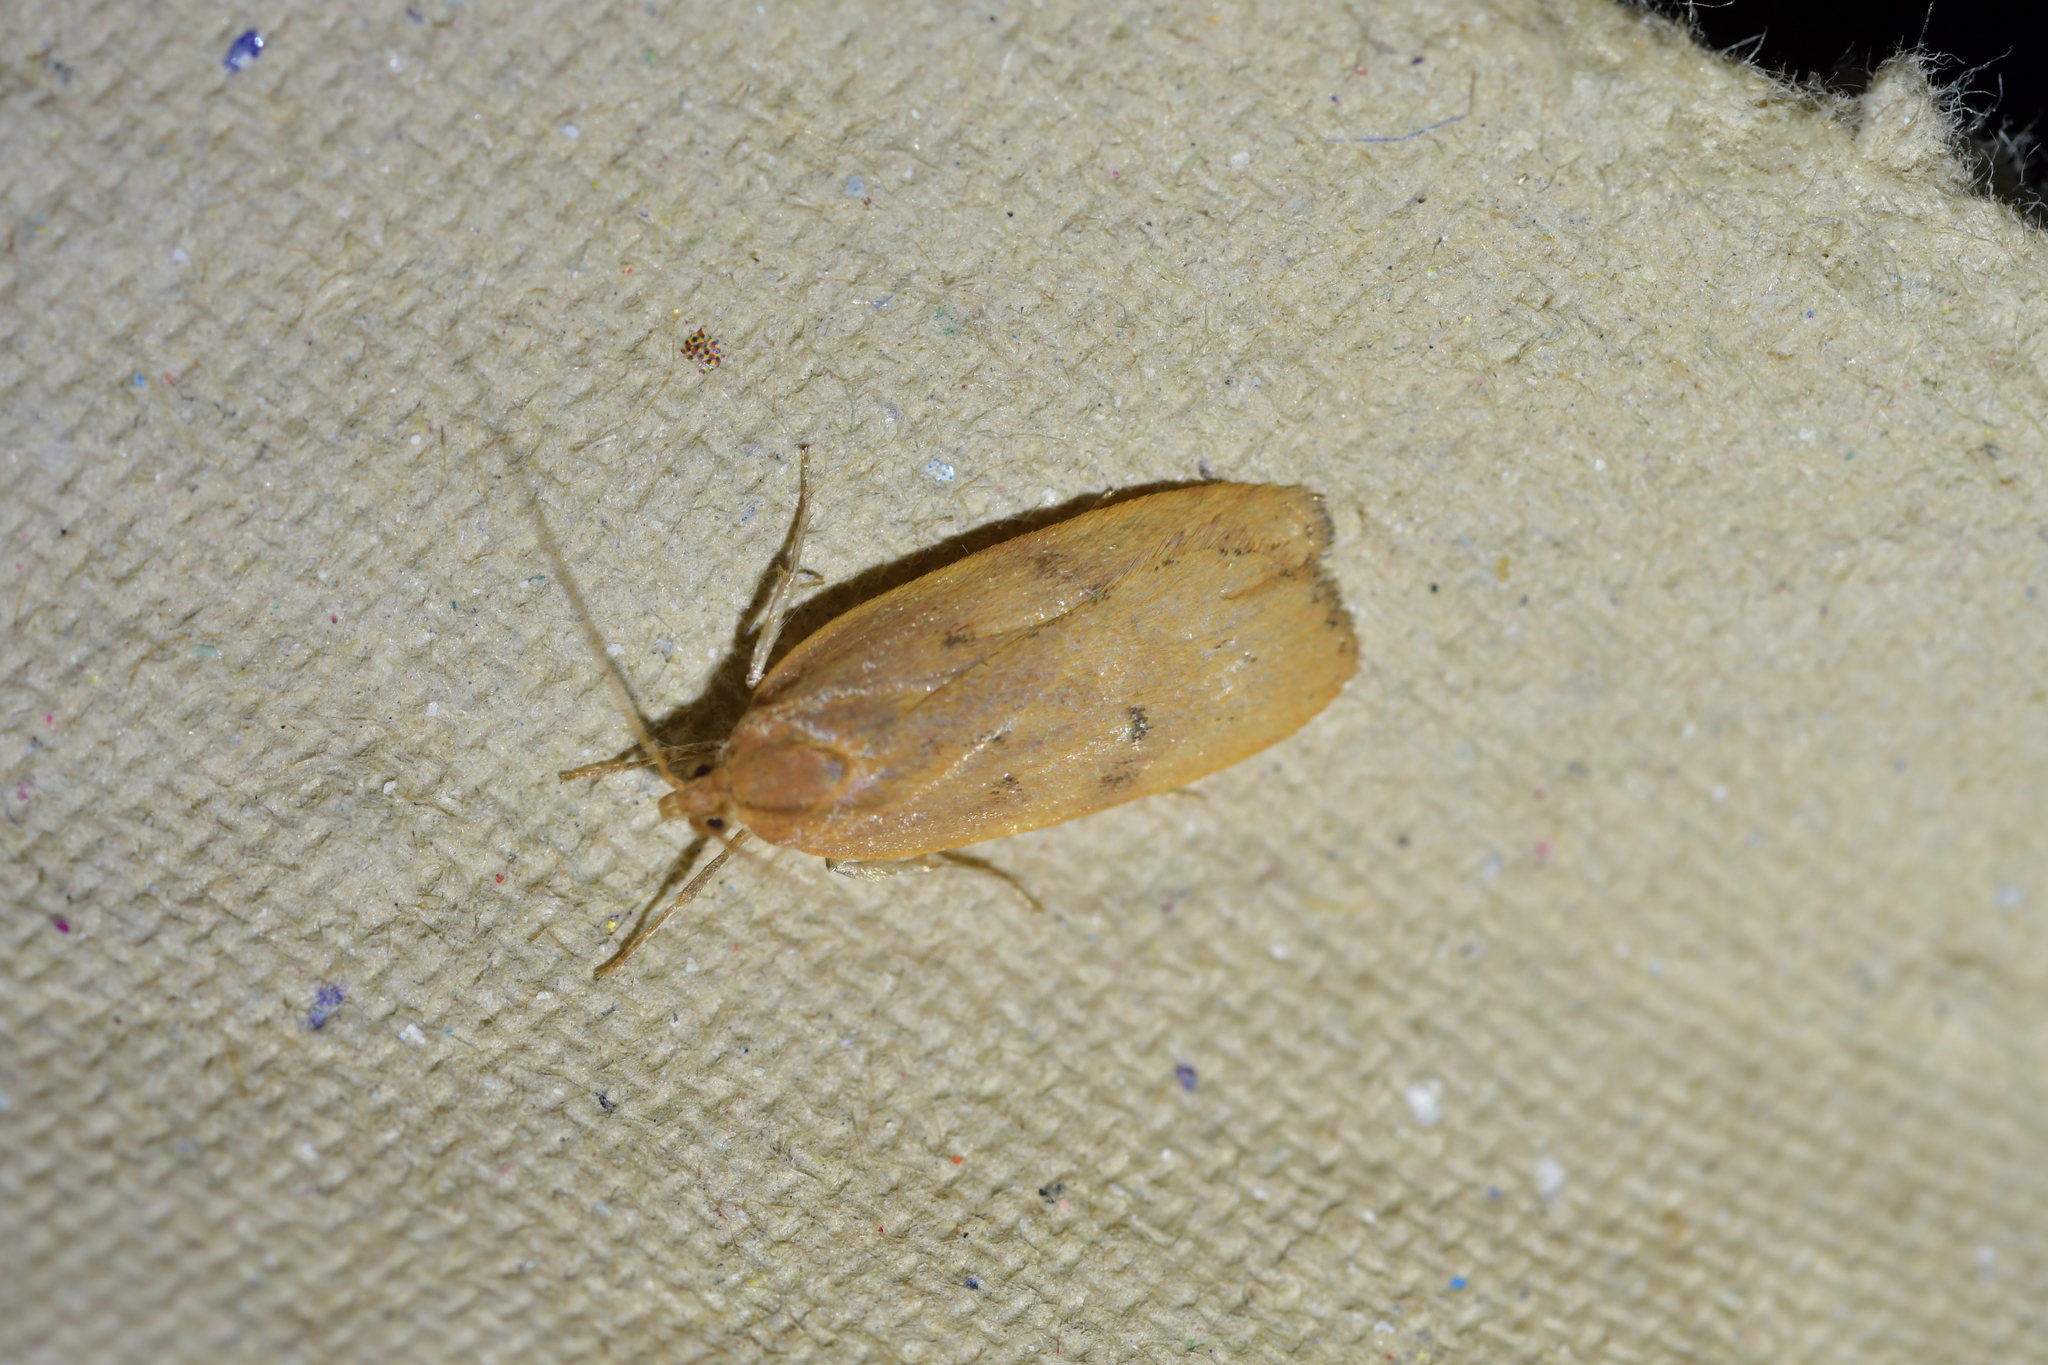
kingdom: Animalia
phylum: Arthropoda
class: Insecta
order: Lepidoptera
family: Depressariidae
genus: Phaeosaces
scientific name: Phaeosaces coarctatella
